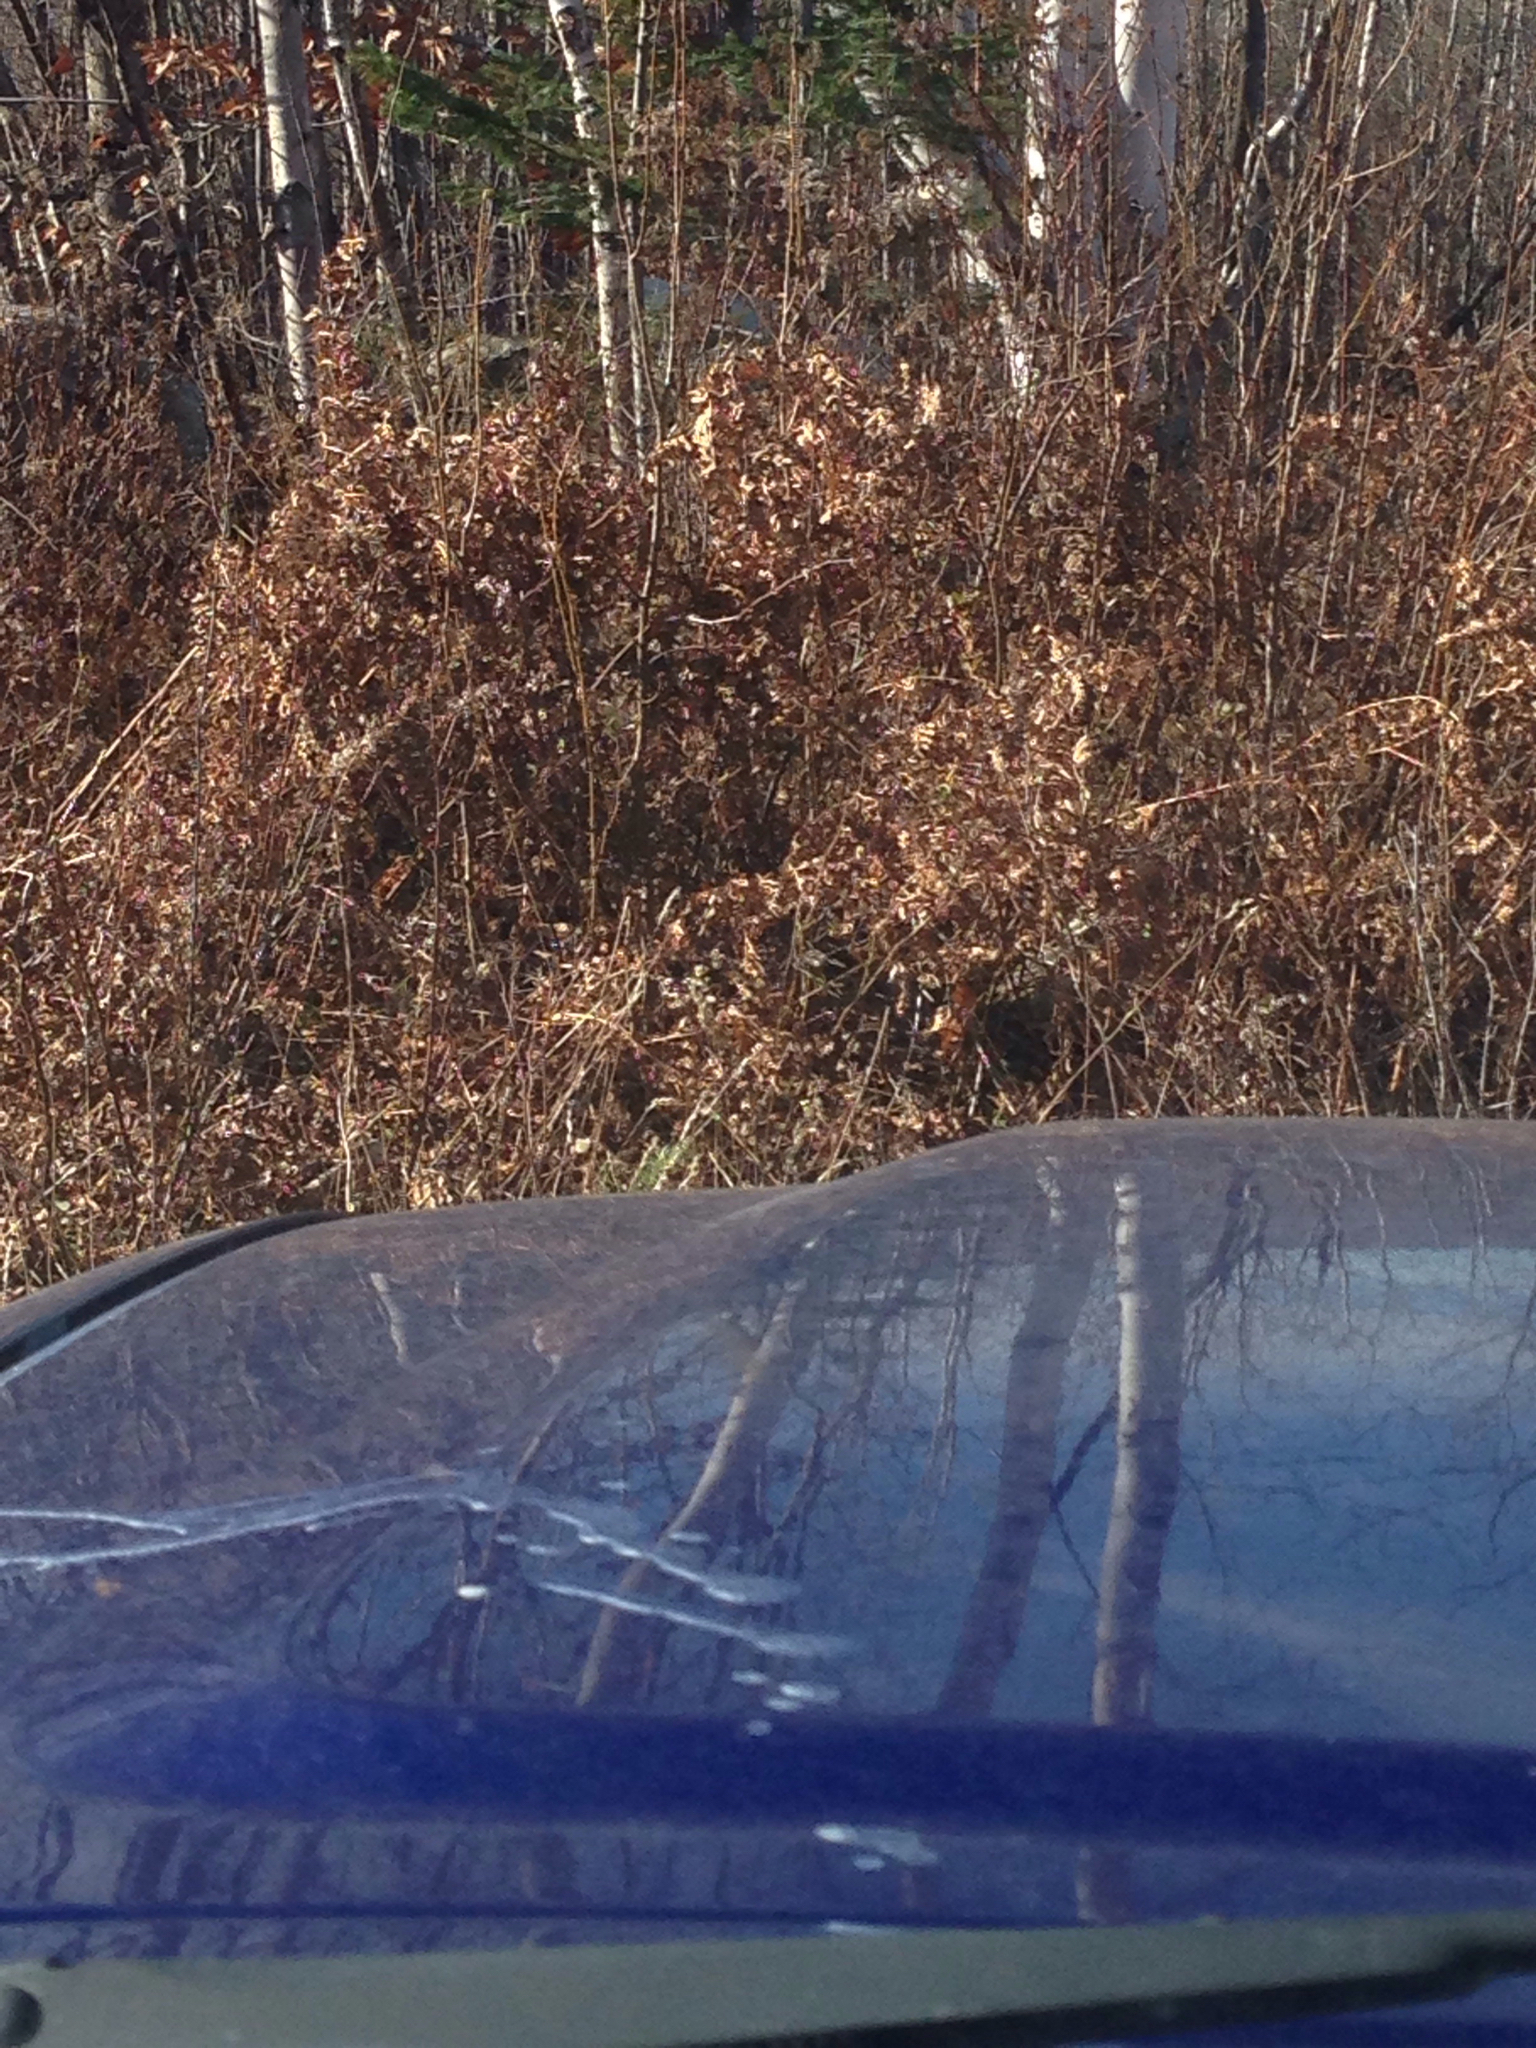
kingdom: Plantae
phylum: Tracheophyta
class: Polypodiopsida
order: Polypodiales
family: Dennstaedtiaceae
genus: Pteridium
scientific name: Pteridium aquilinum
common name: Bracken
